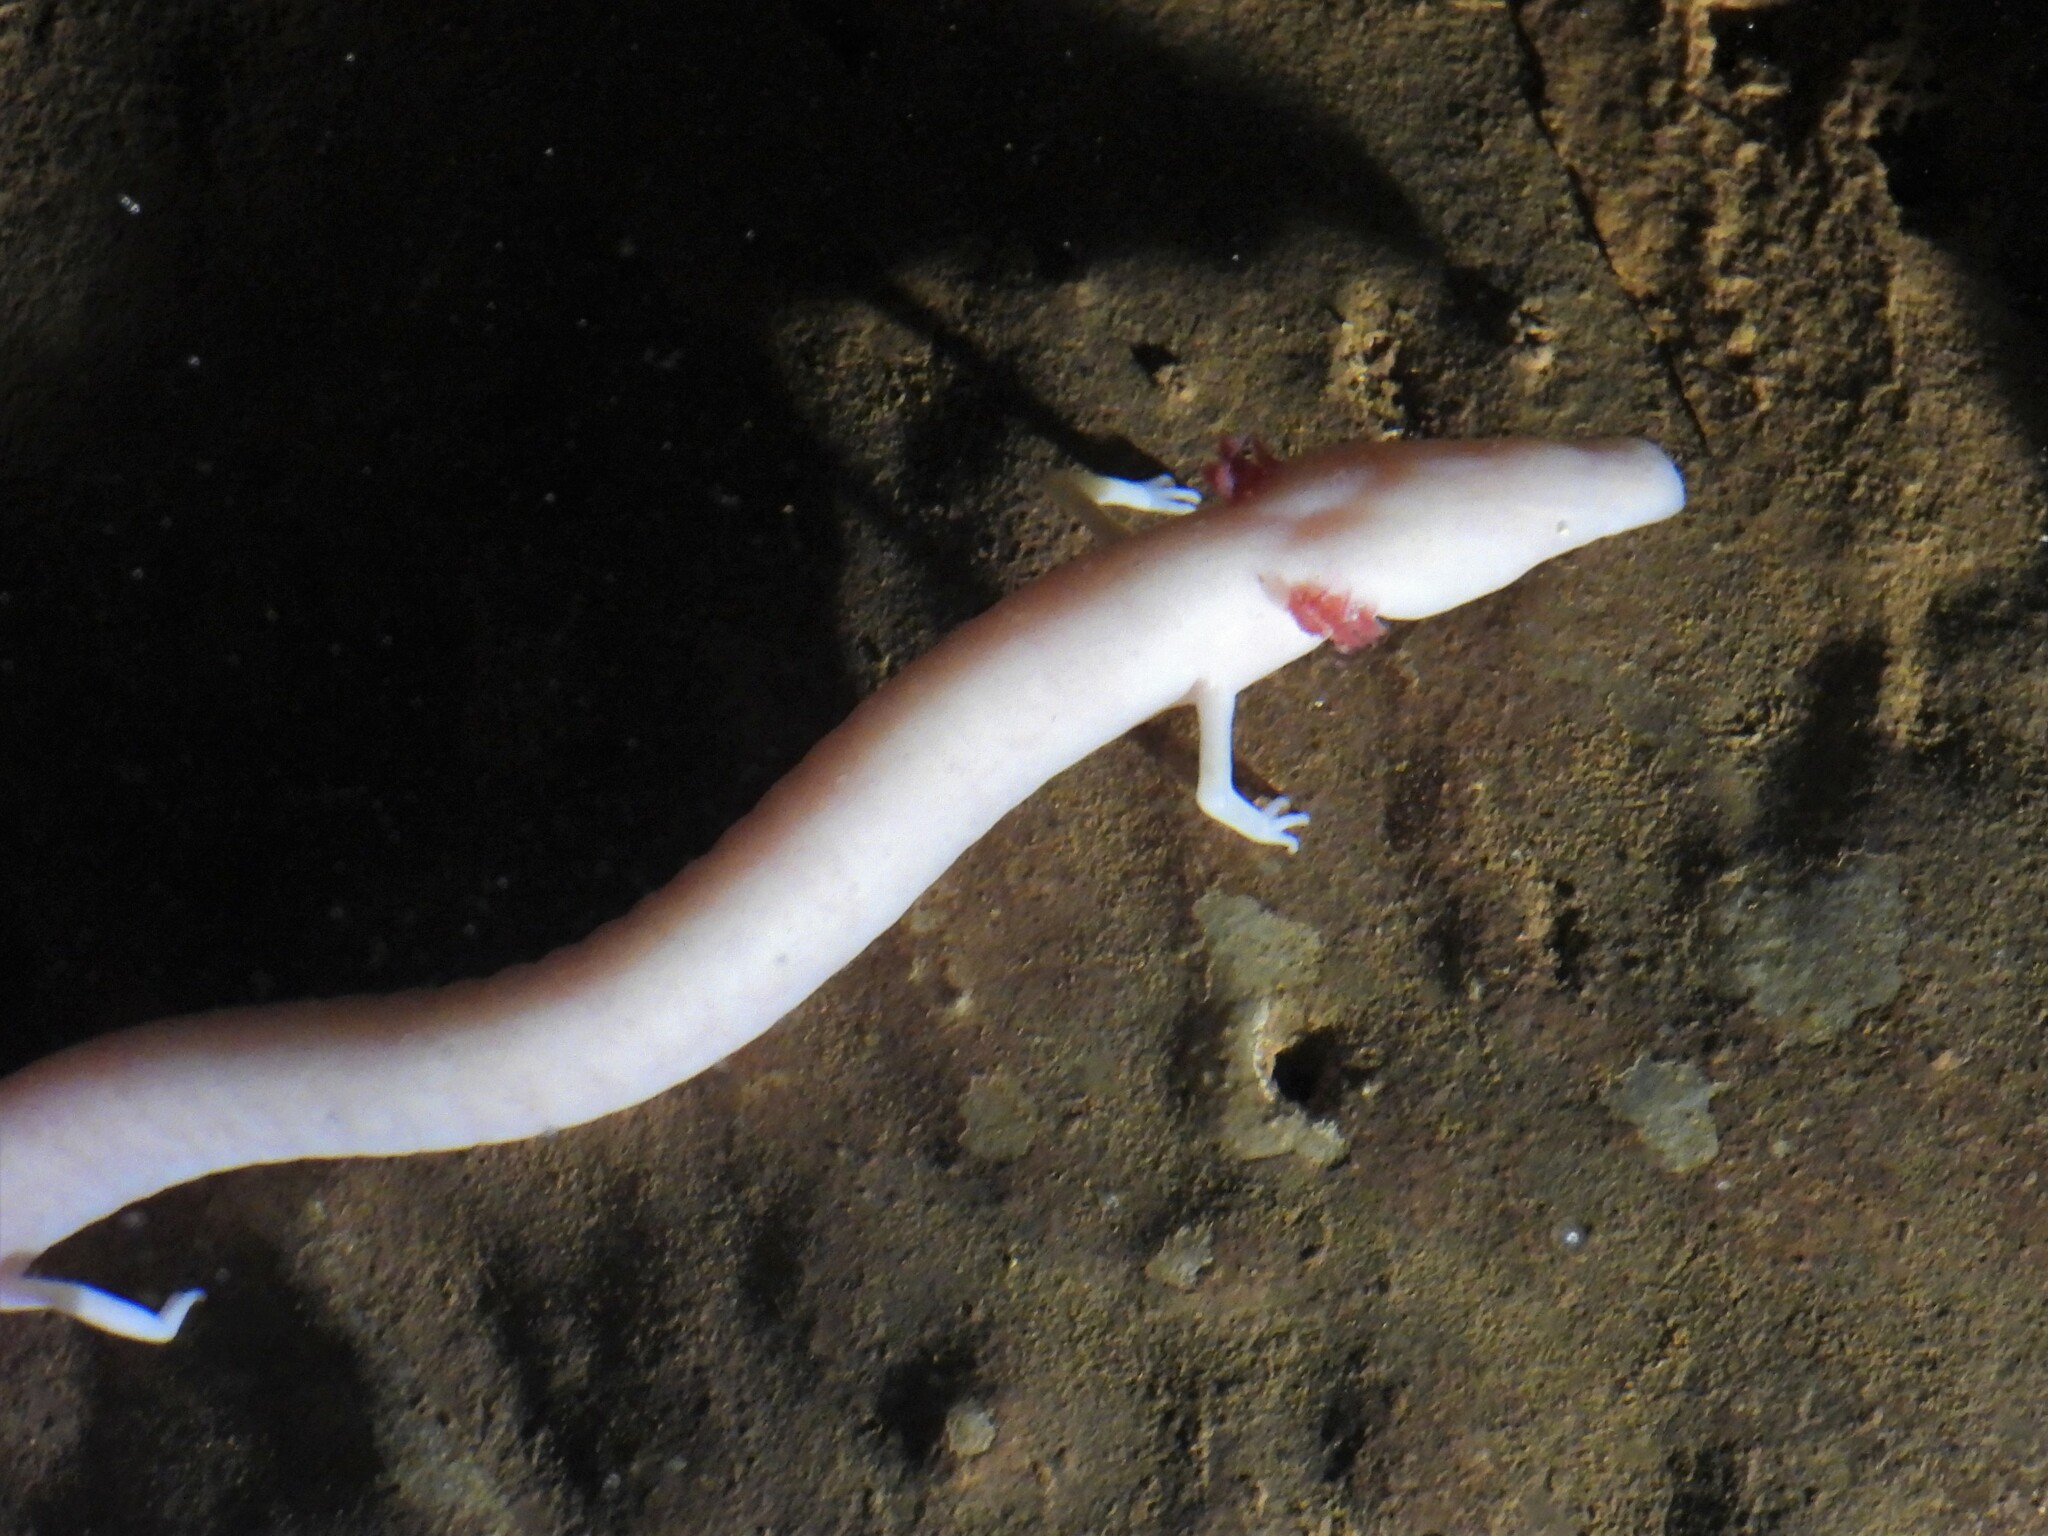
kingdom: Animalia
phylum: Chordata
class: Amphibia
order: Caudata
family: Proteidae
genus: Proteus
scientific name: Proteus anguinus
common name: Olm
